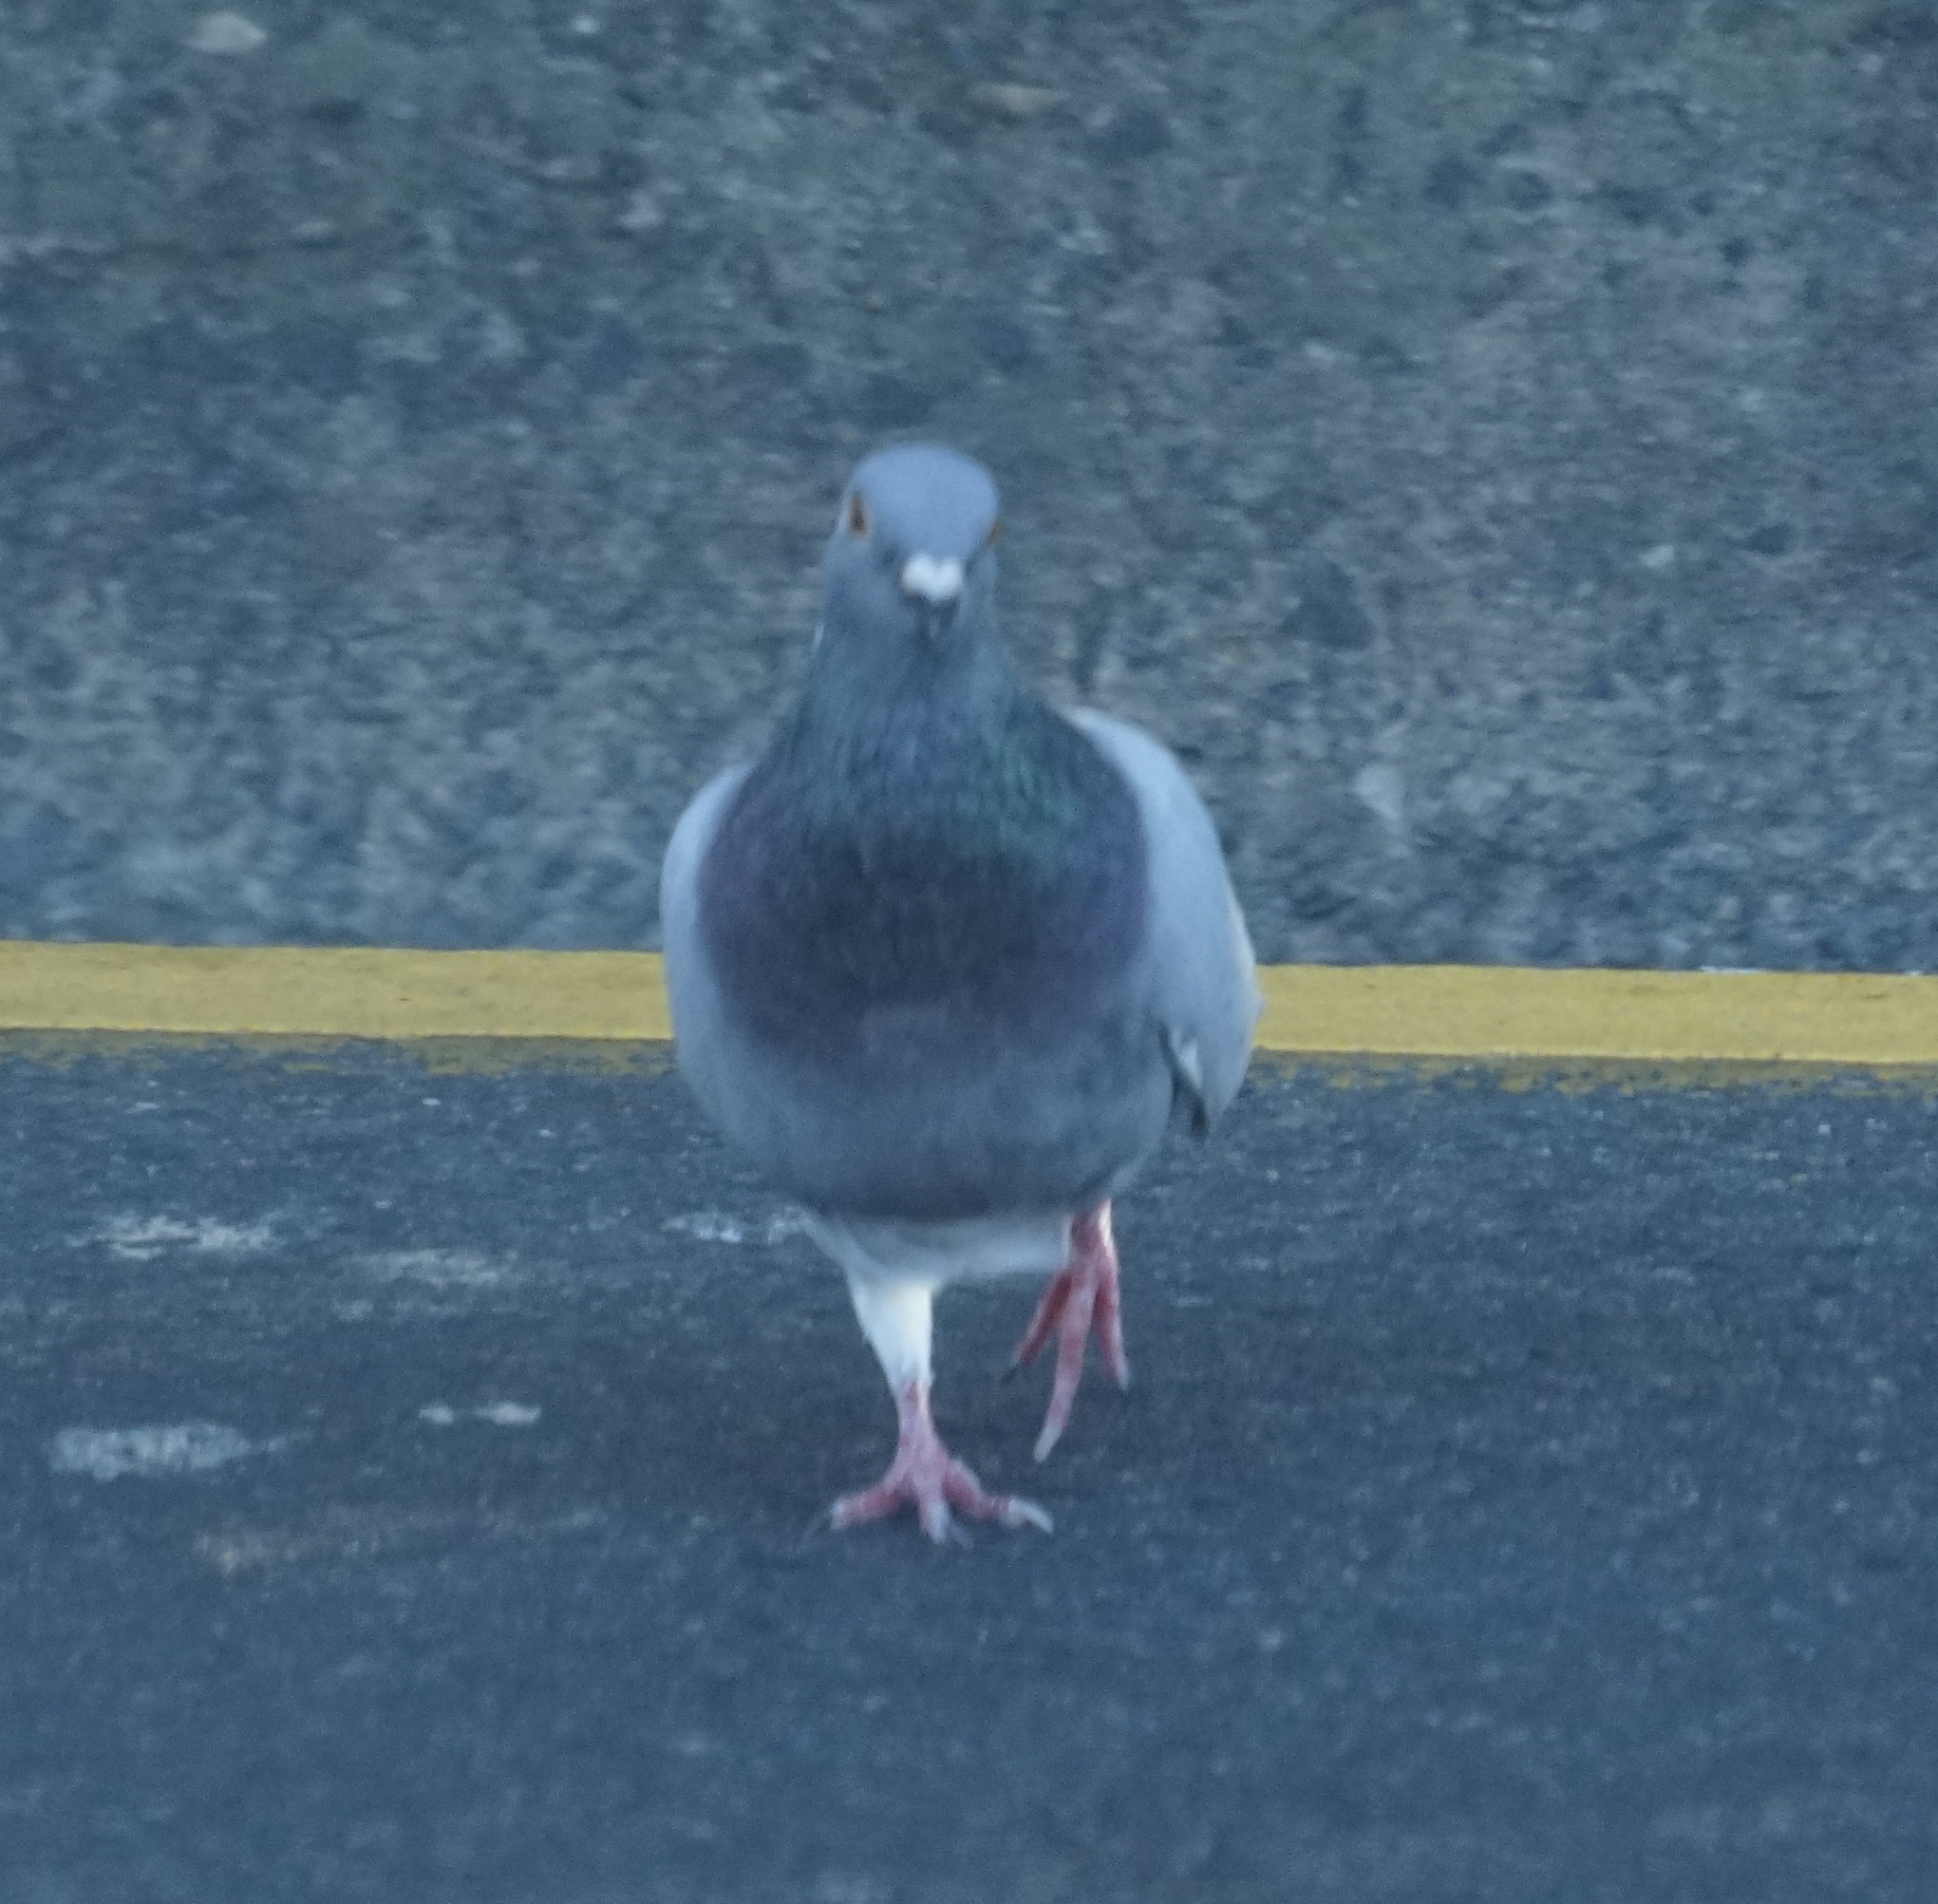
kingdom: Animalia
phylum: Chordata
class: Aves
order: Columbiformes
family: Columbidae
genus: Columba
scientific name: Columba livia
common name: Rock pigeon
